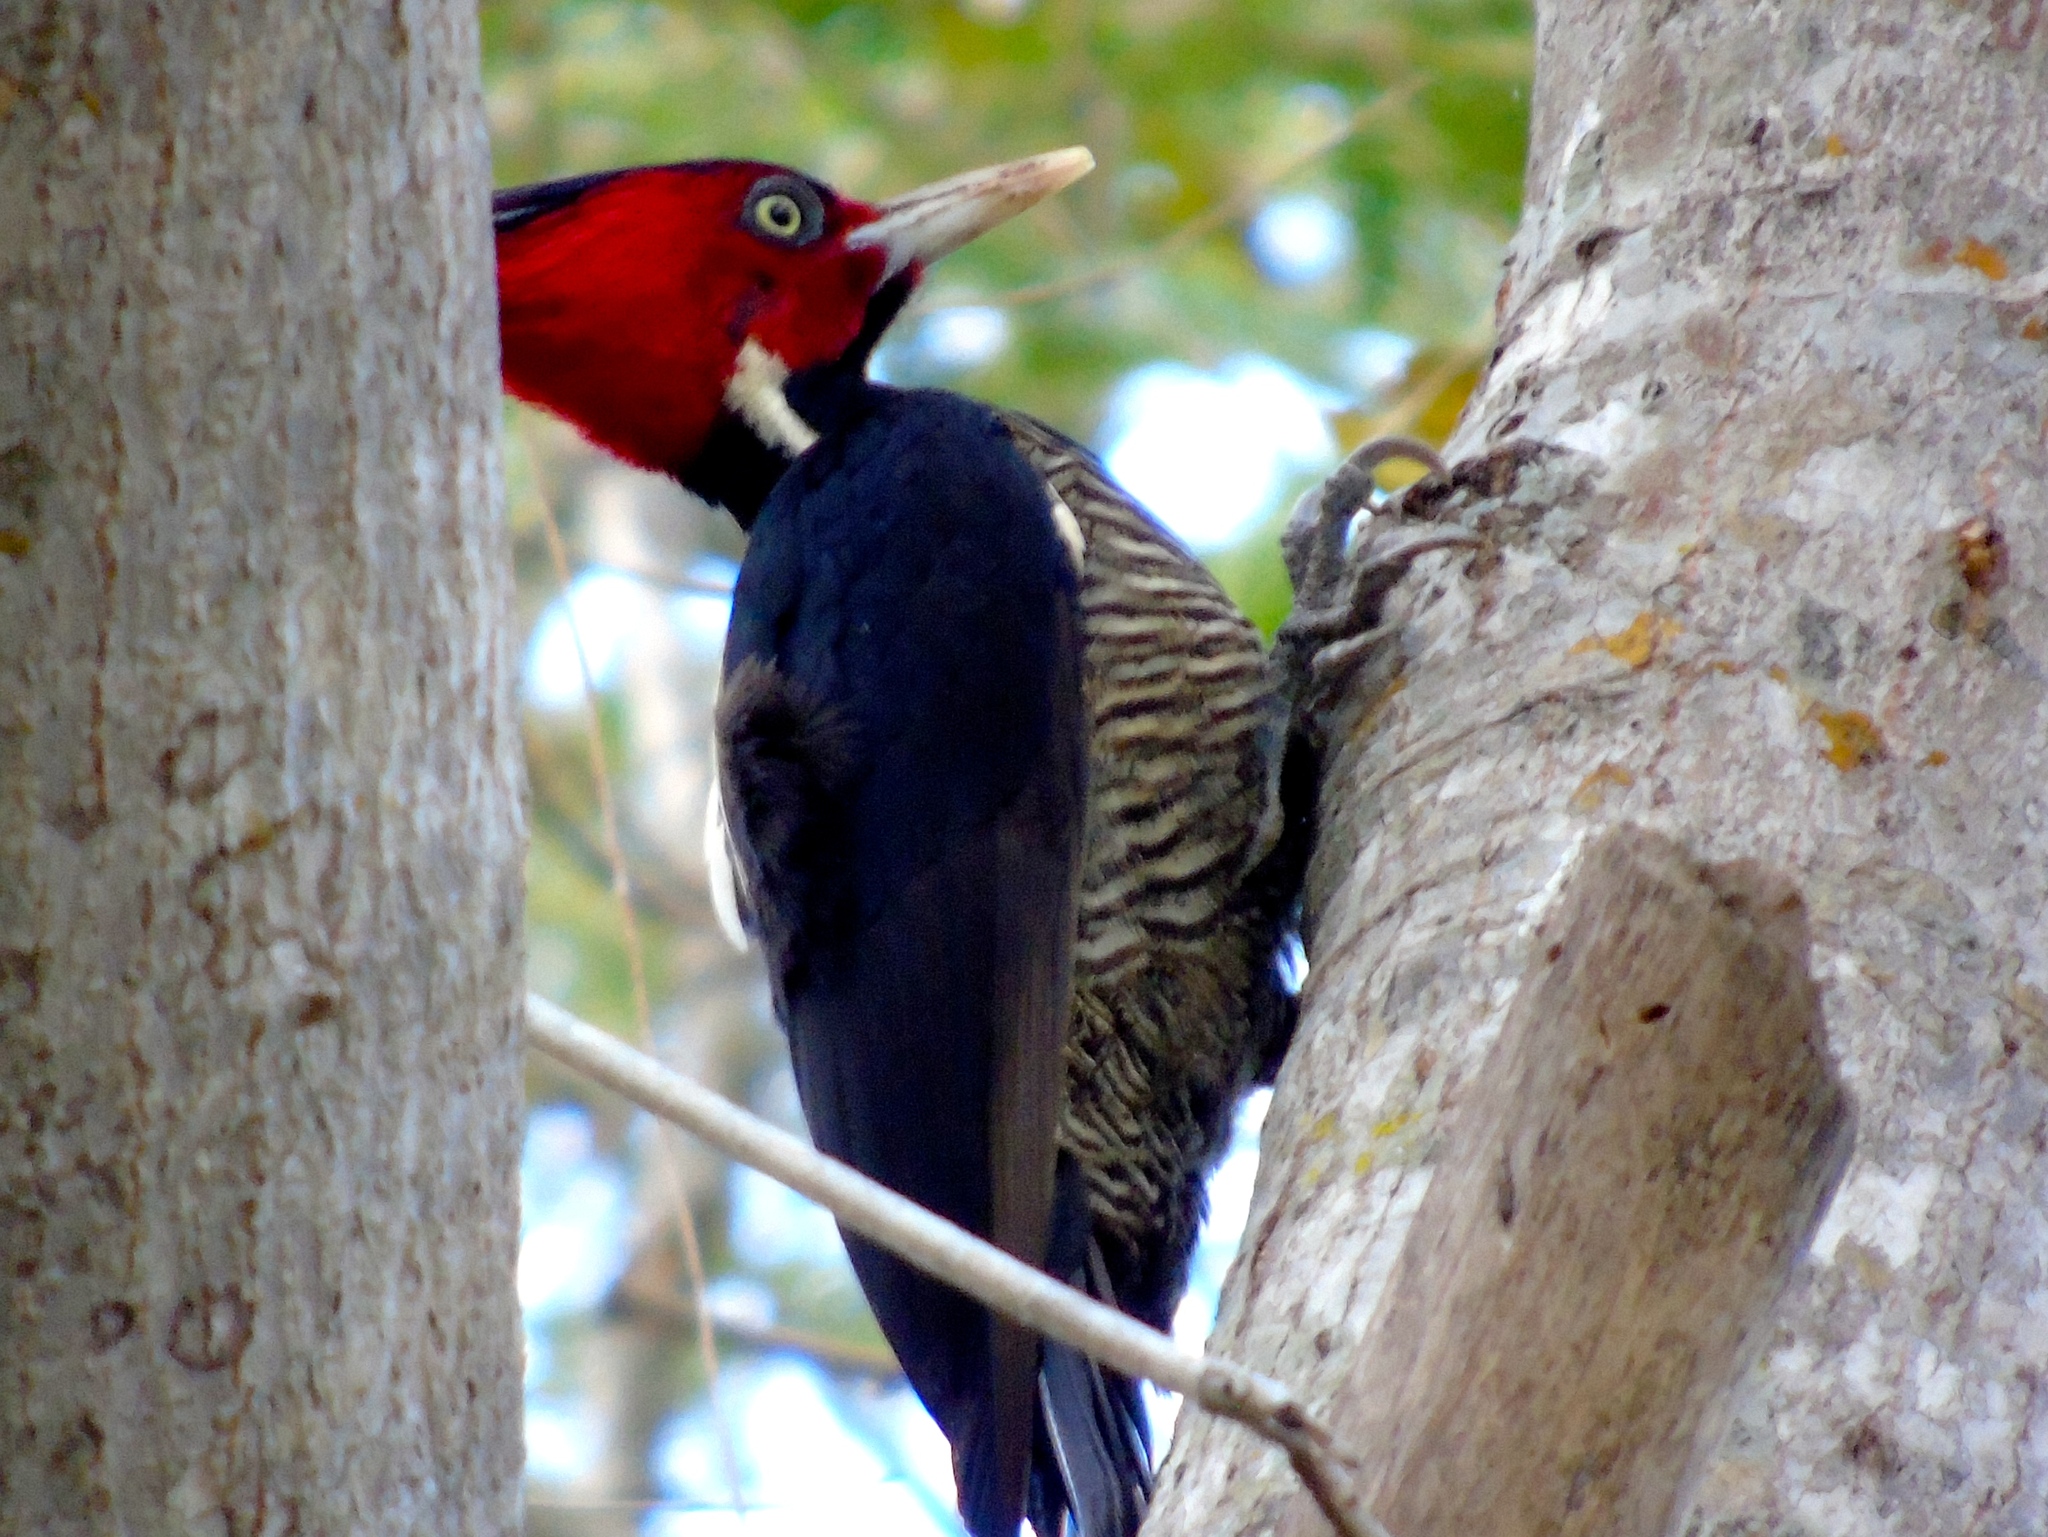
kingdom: Animalia
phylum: Chordata
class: Aves
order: Piciformes
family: Picidae
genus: Campephilus
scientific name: Campephilus guatemalensis
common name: Pale-billed woodpecker
